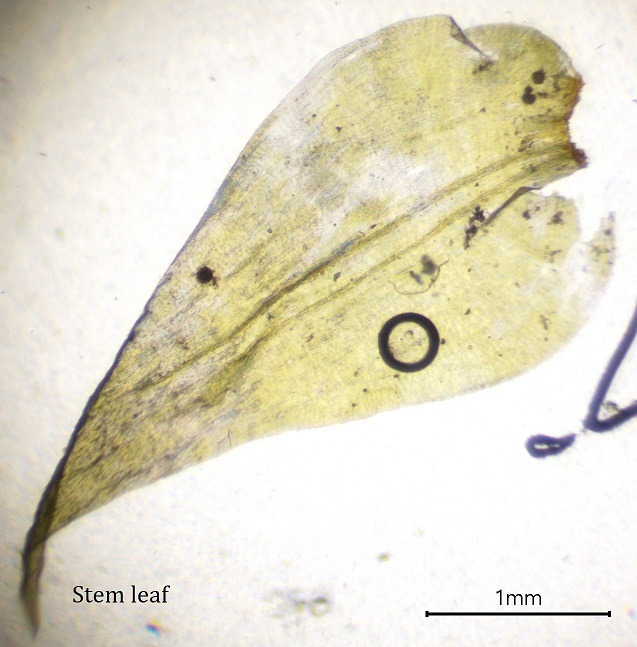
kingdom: Plantae
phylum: Bryophyta
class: Bryopsida
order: Hypnales
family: Hylocomiaceae
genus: Hylocomiadelphus
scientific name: Hylocomiadelphus triquetrus
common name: Rough goose neck moss
